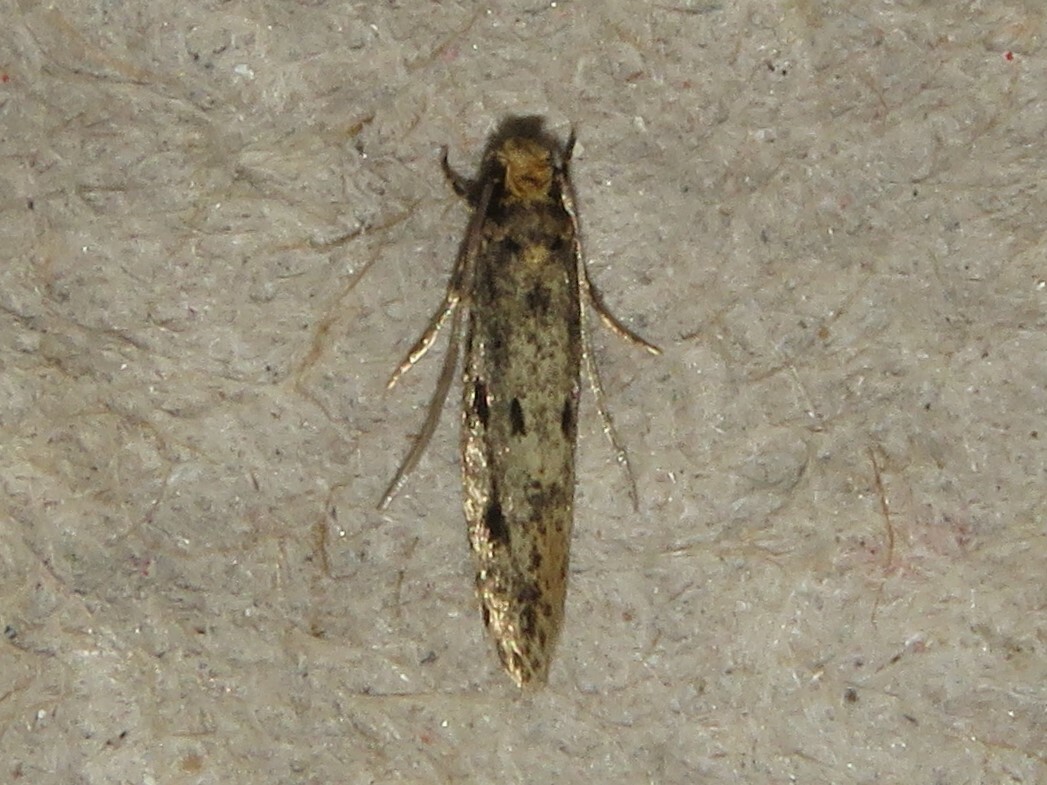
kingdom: Animalia
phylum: Arthropoda
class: Insecta
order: Lepidoptera
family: Tineidae
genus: Niditinea
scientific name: Niditinea orleansella
